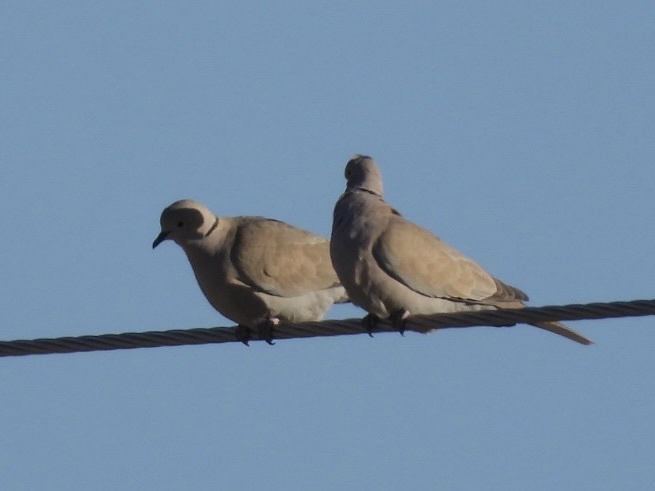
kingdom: Animalia
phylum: Chordata
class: Aves
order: Columbiformes
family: Columbidae
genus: Streptopelia
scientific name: Streptopelia decaocto
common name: Eurasian collared dove
